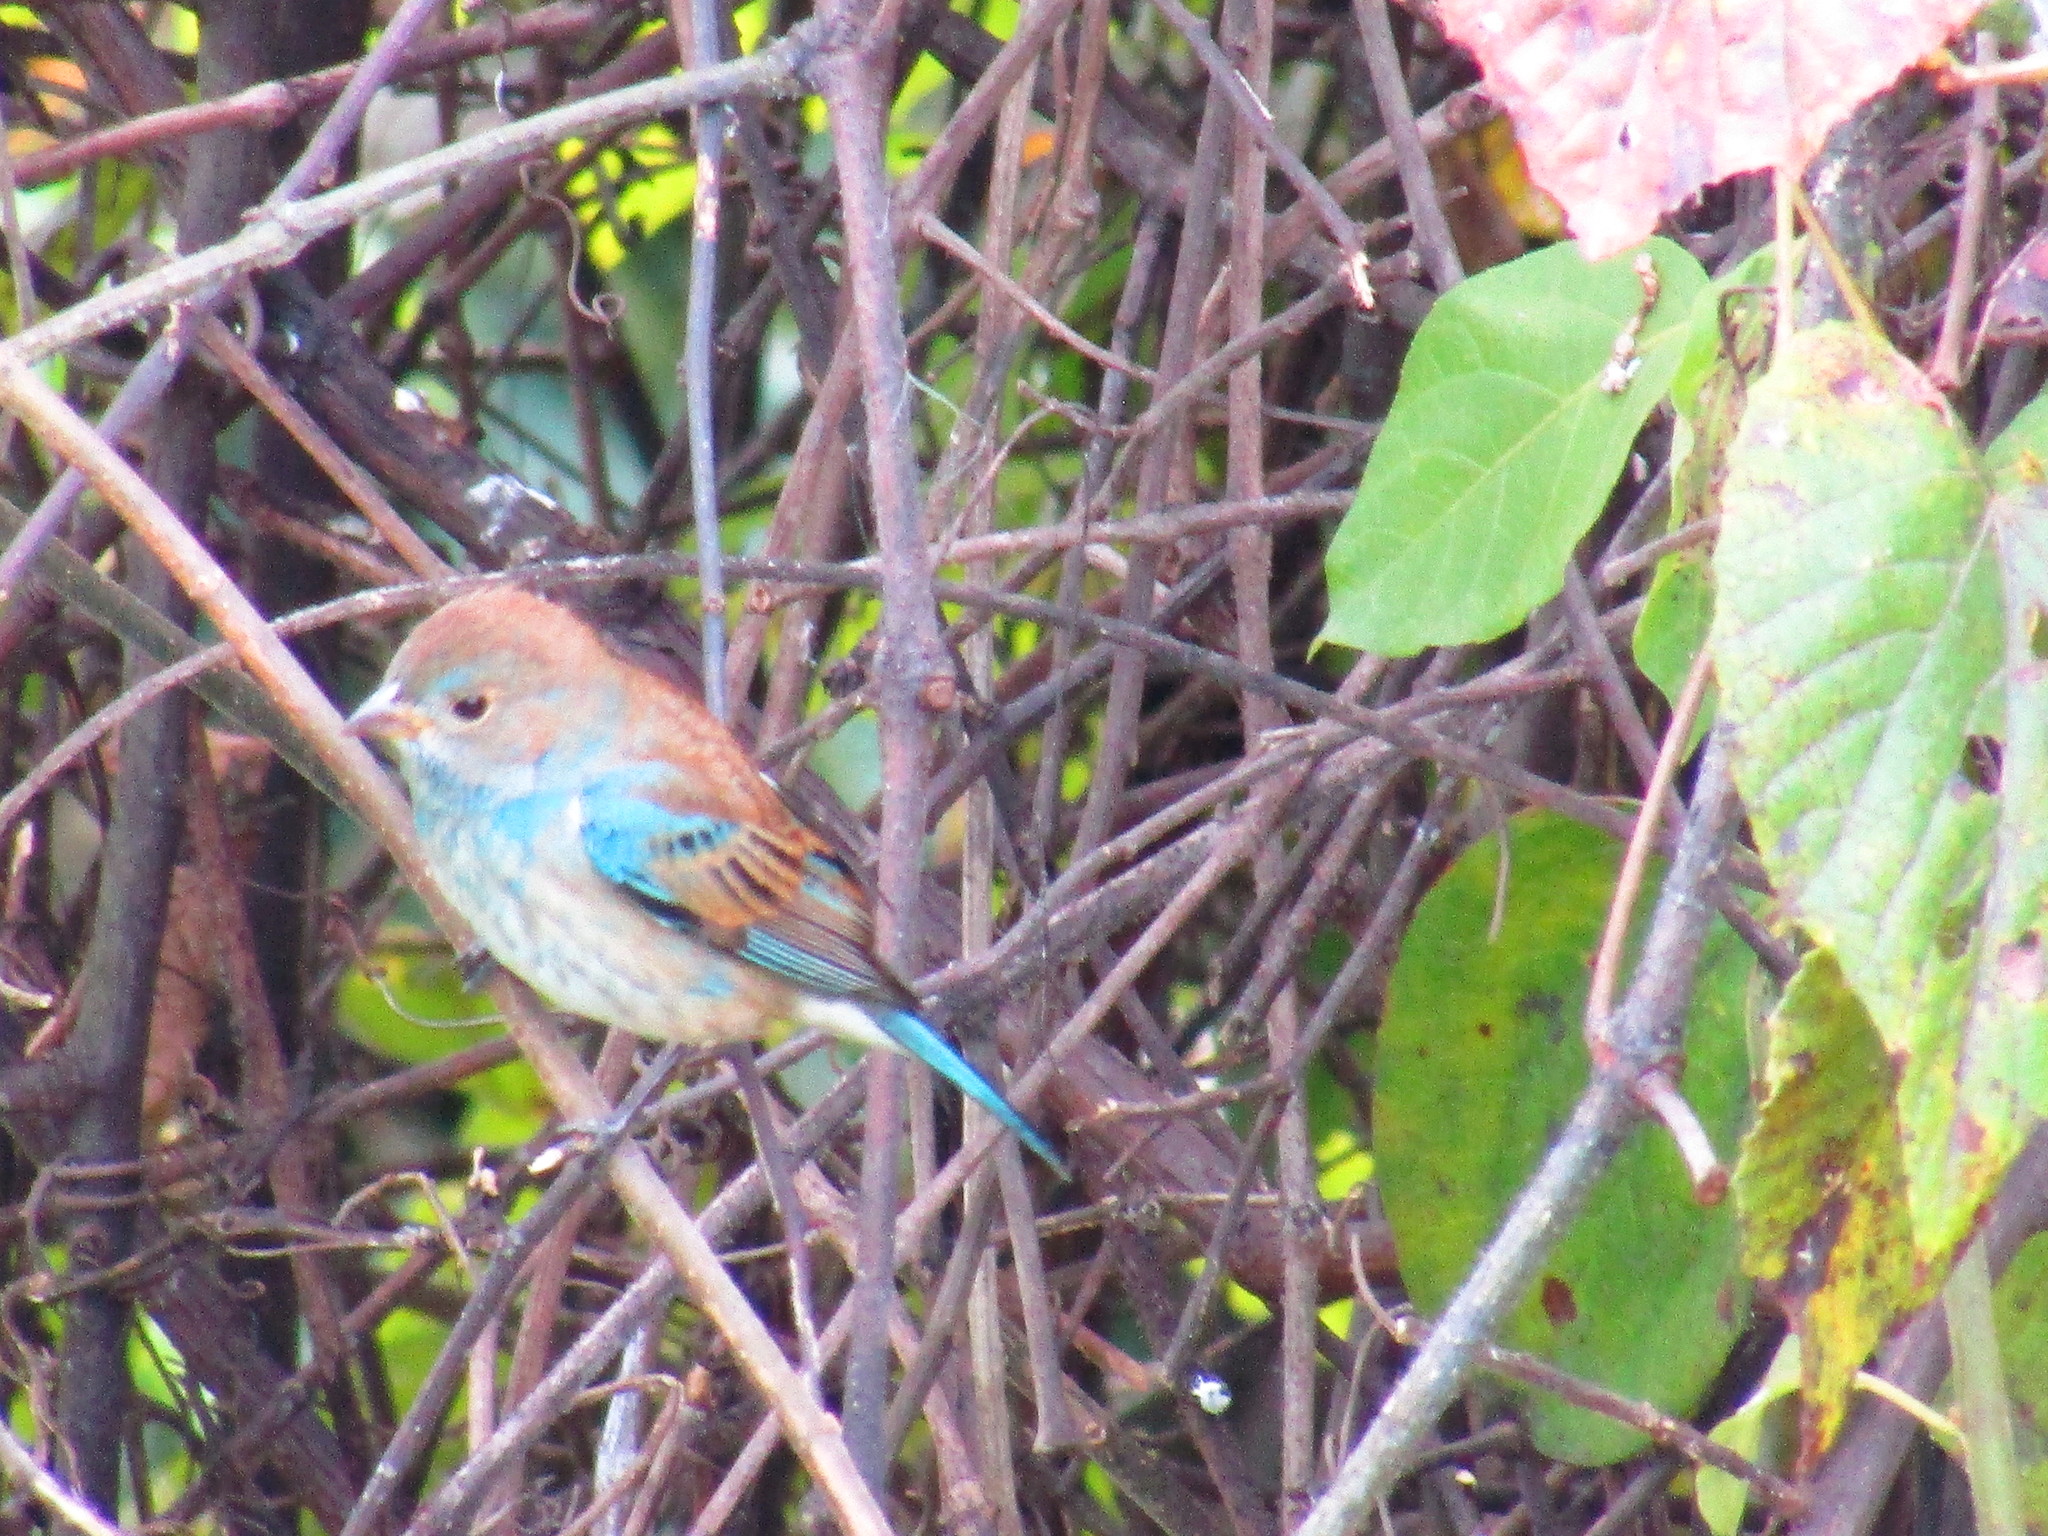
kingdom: Animalia
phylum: Chordata
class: Aves
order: Passeriformes
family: Cardinalidae
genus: Passerina
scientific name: Passerina cyanea
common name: Indigo bunting
